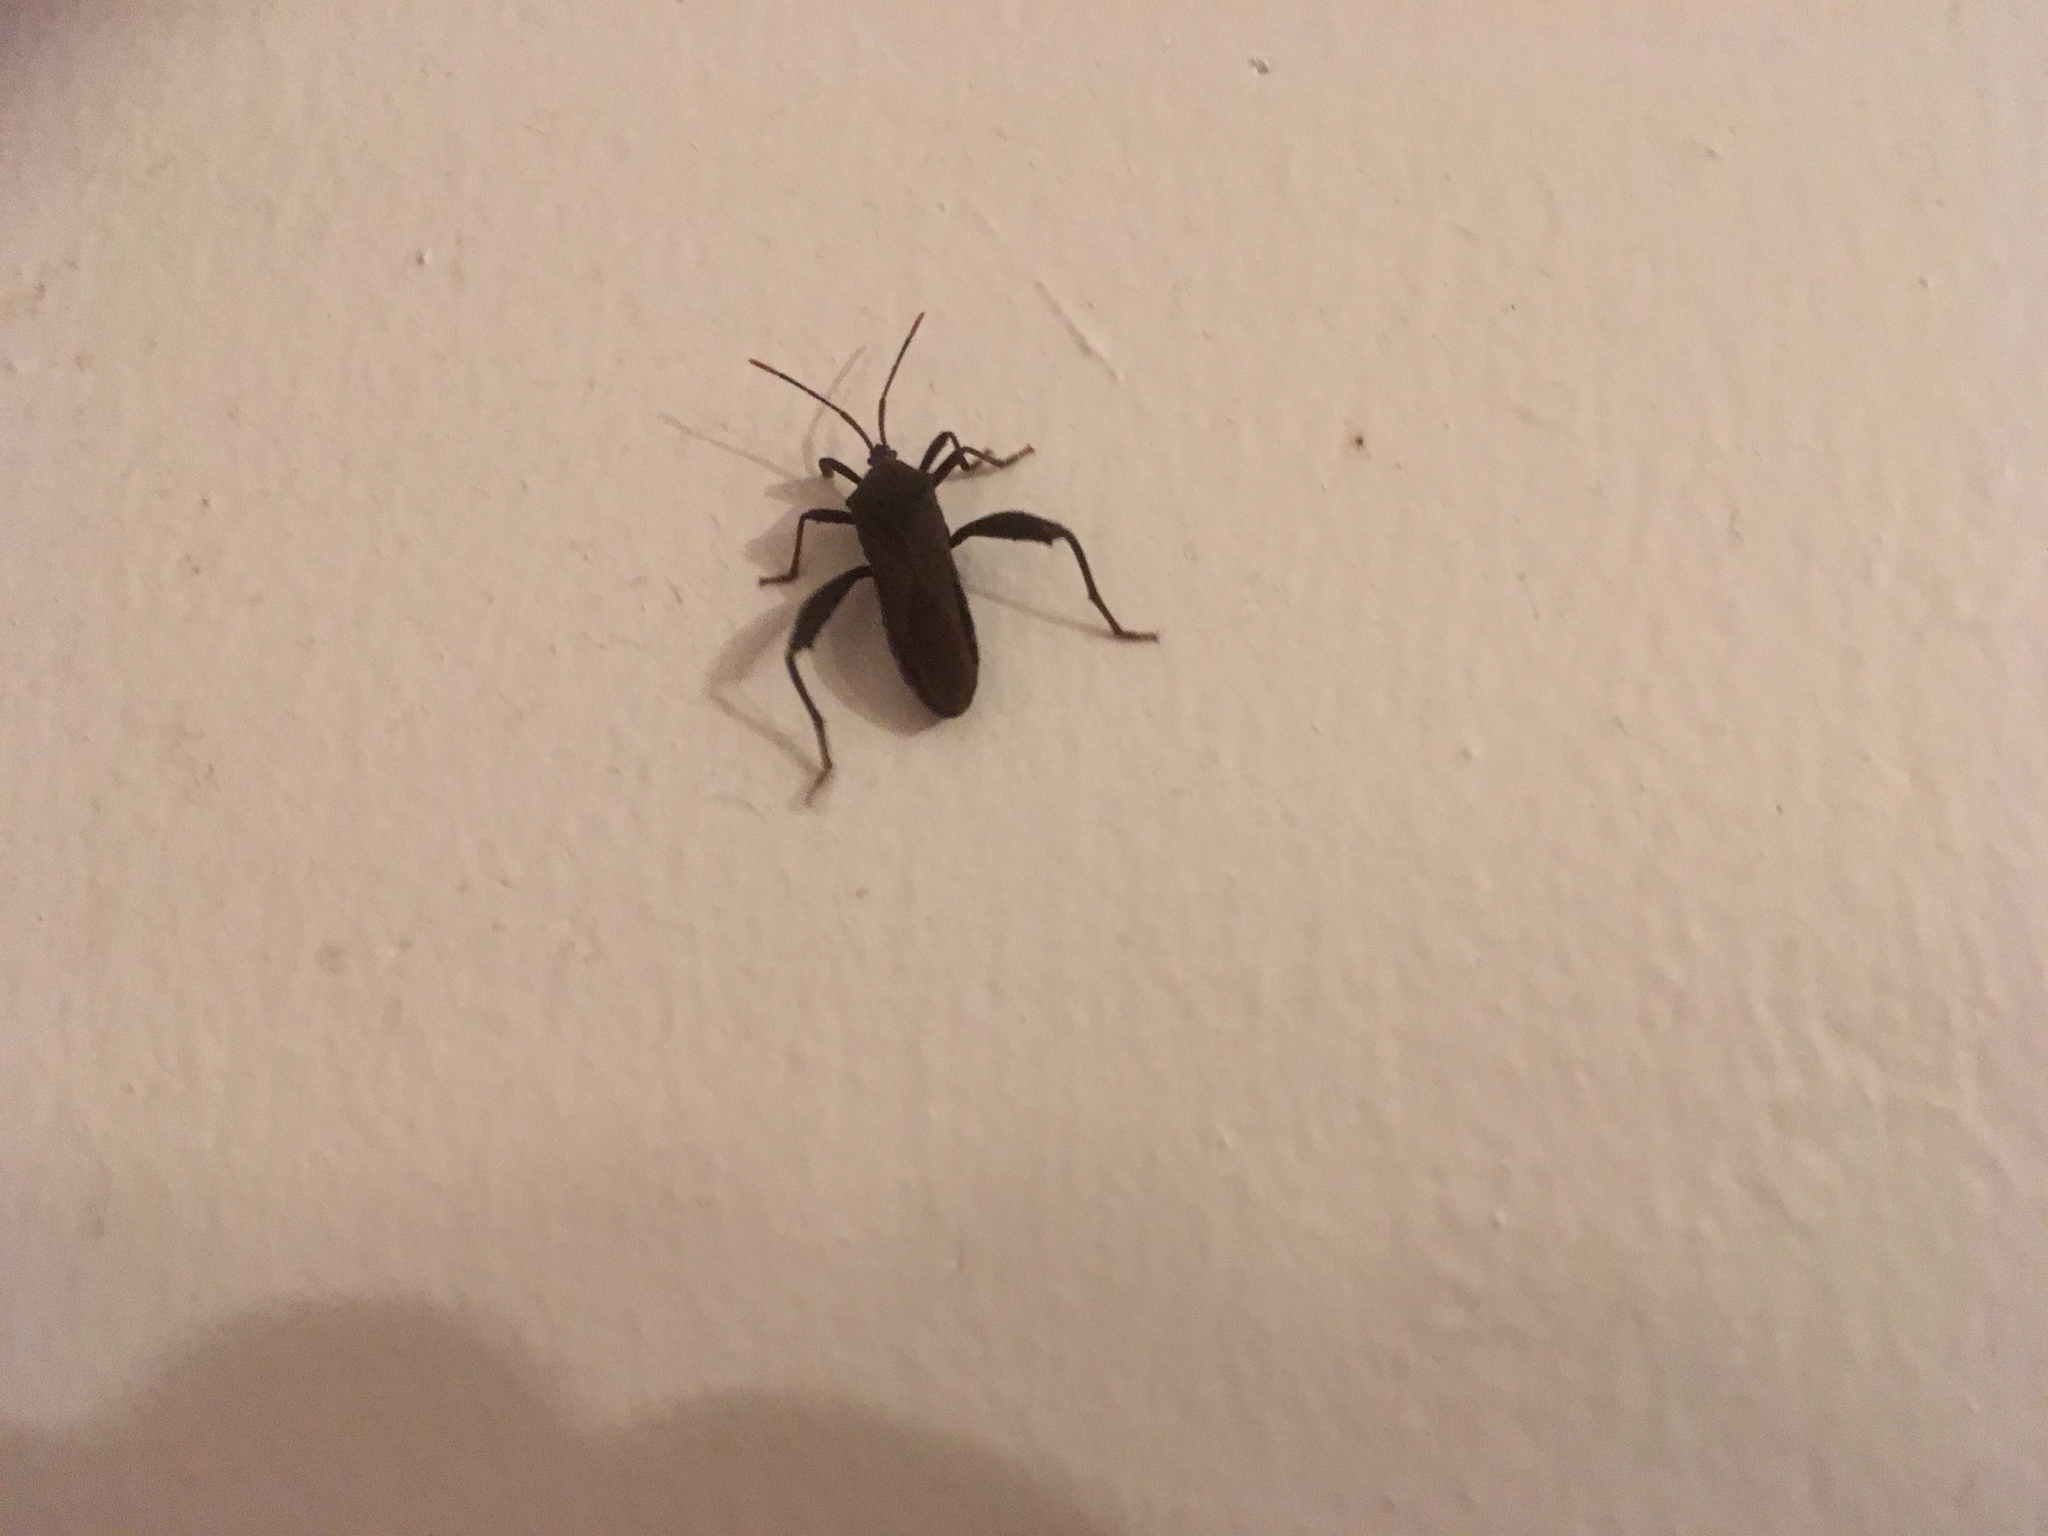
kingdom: Animalia
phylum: Arthropoda
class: Insecta
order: Hemiptera
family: Coreidae
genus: Piezogaster
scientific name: Piezogaster vates
